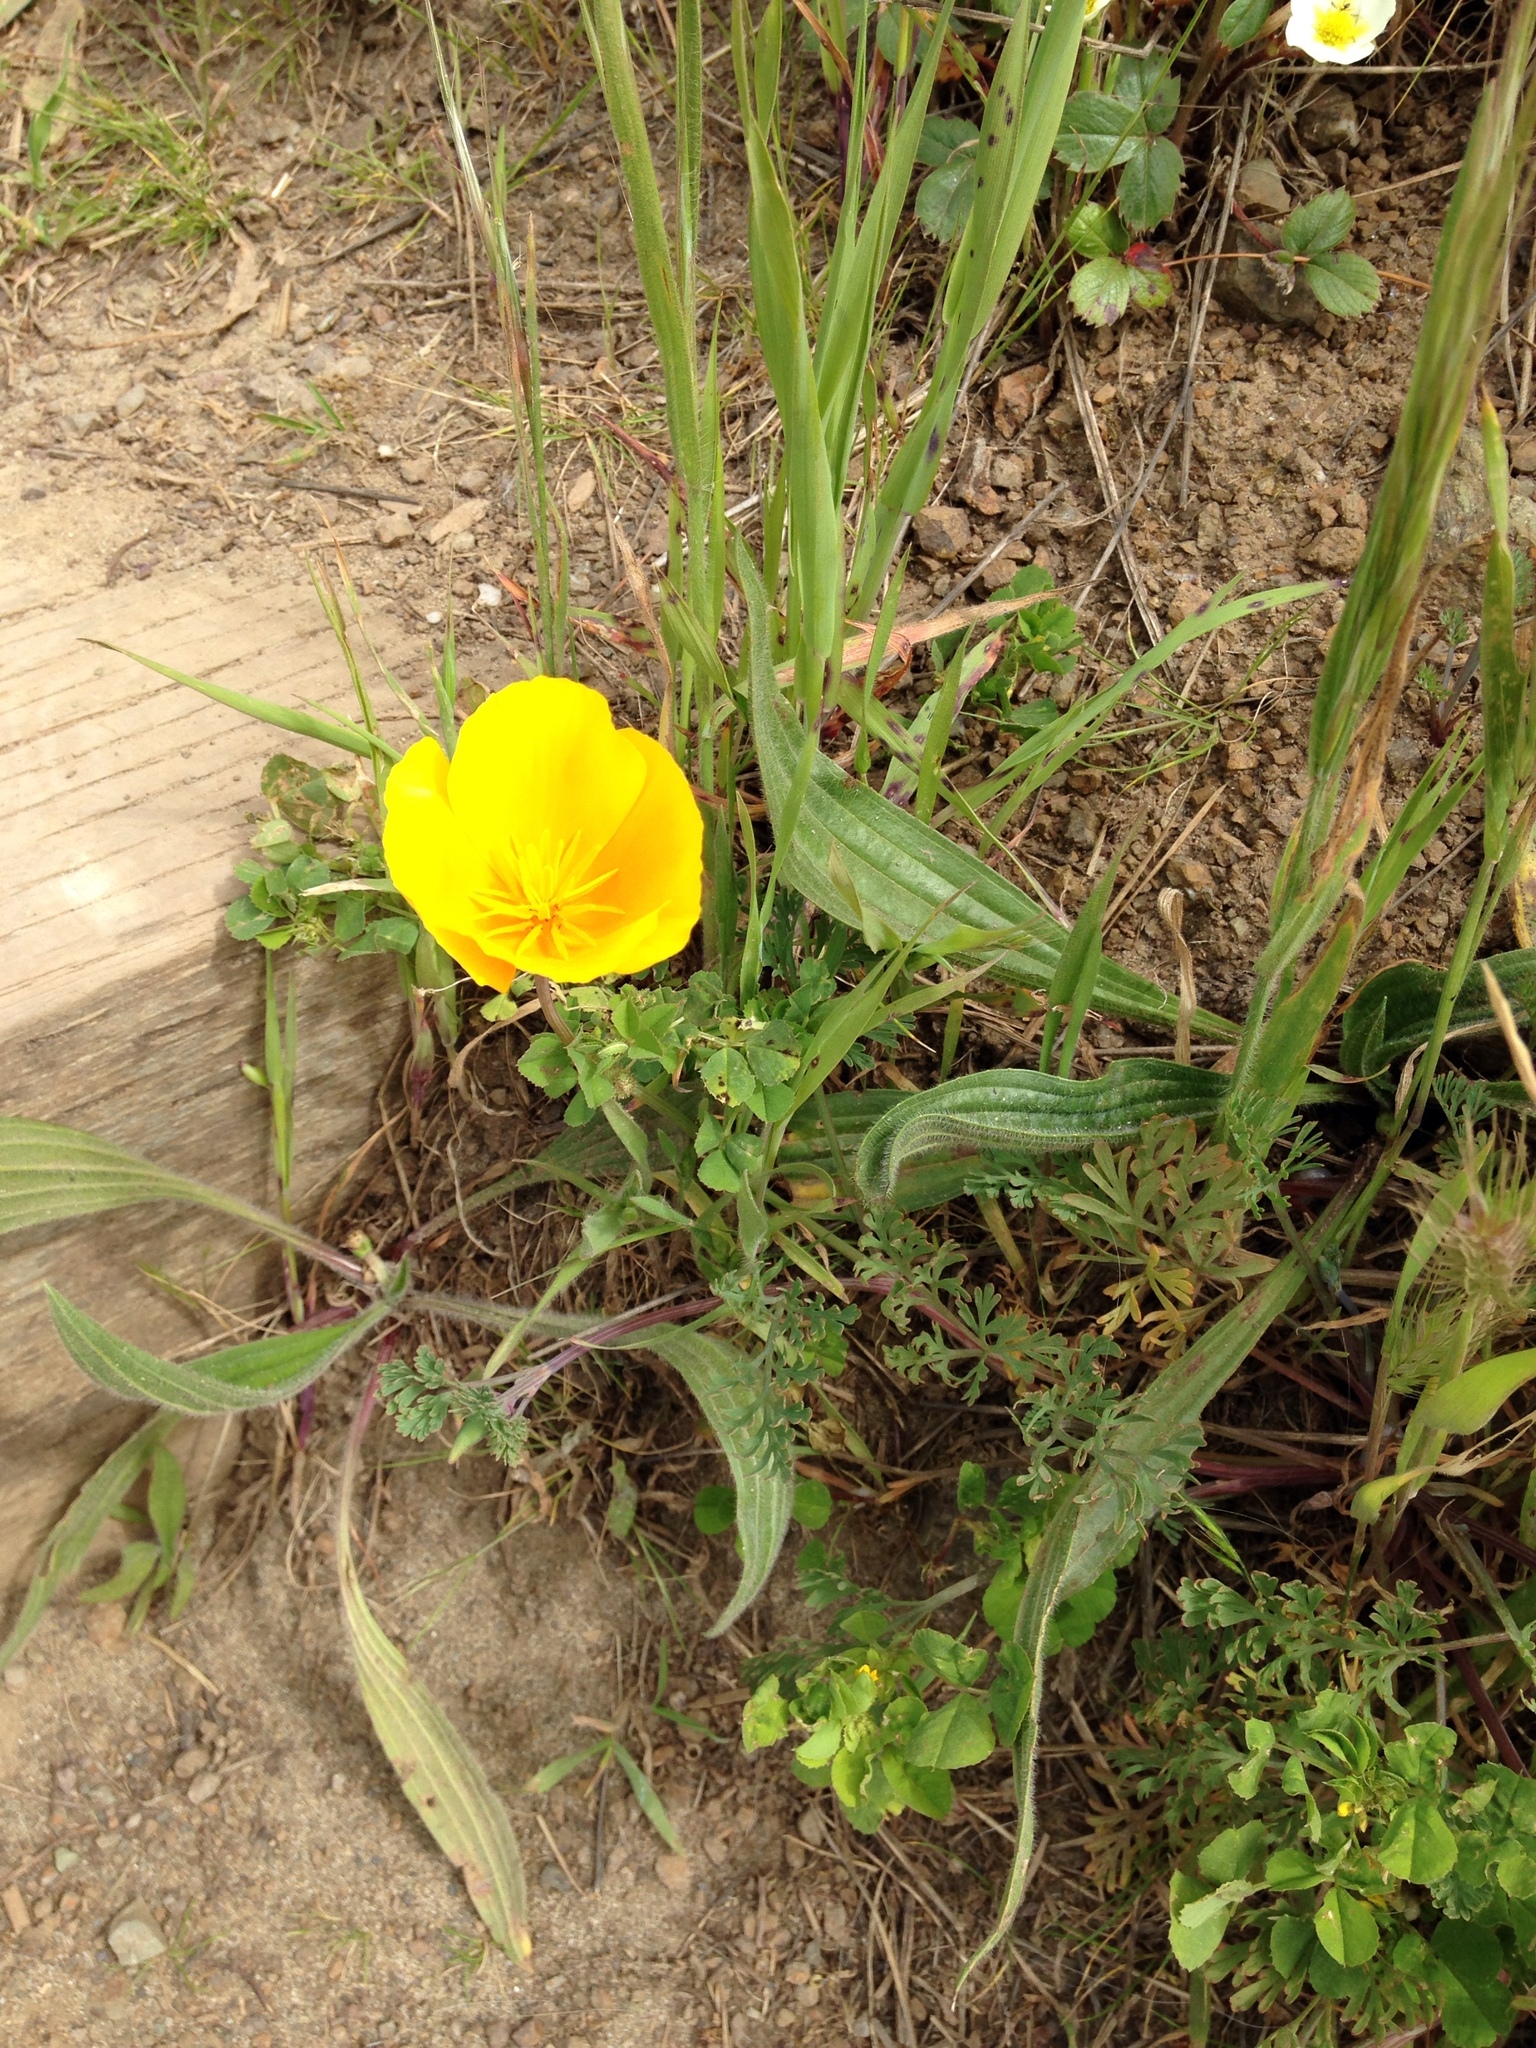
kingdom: Plantae
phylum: Tracheophyta
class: Magnoliopsida
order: Ranunculales
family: Papaveraceae
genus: Eschscholzia
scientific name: Eschscholzia californica
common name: California poppy
